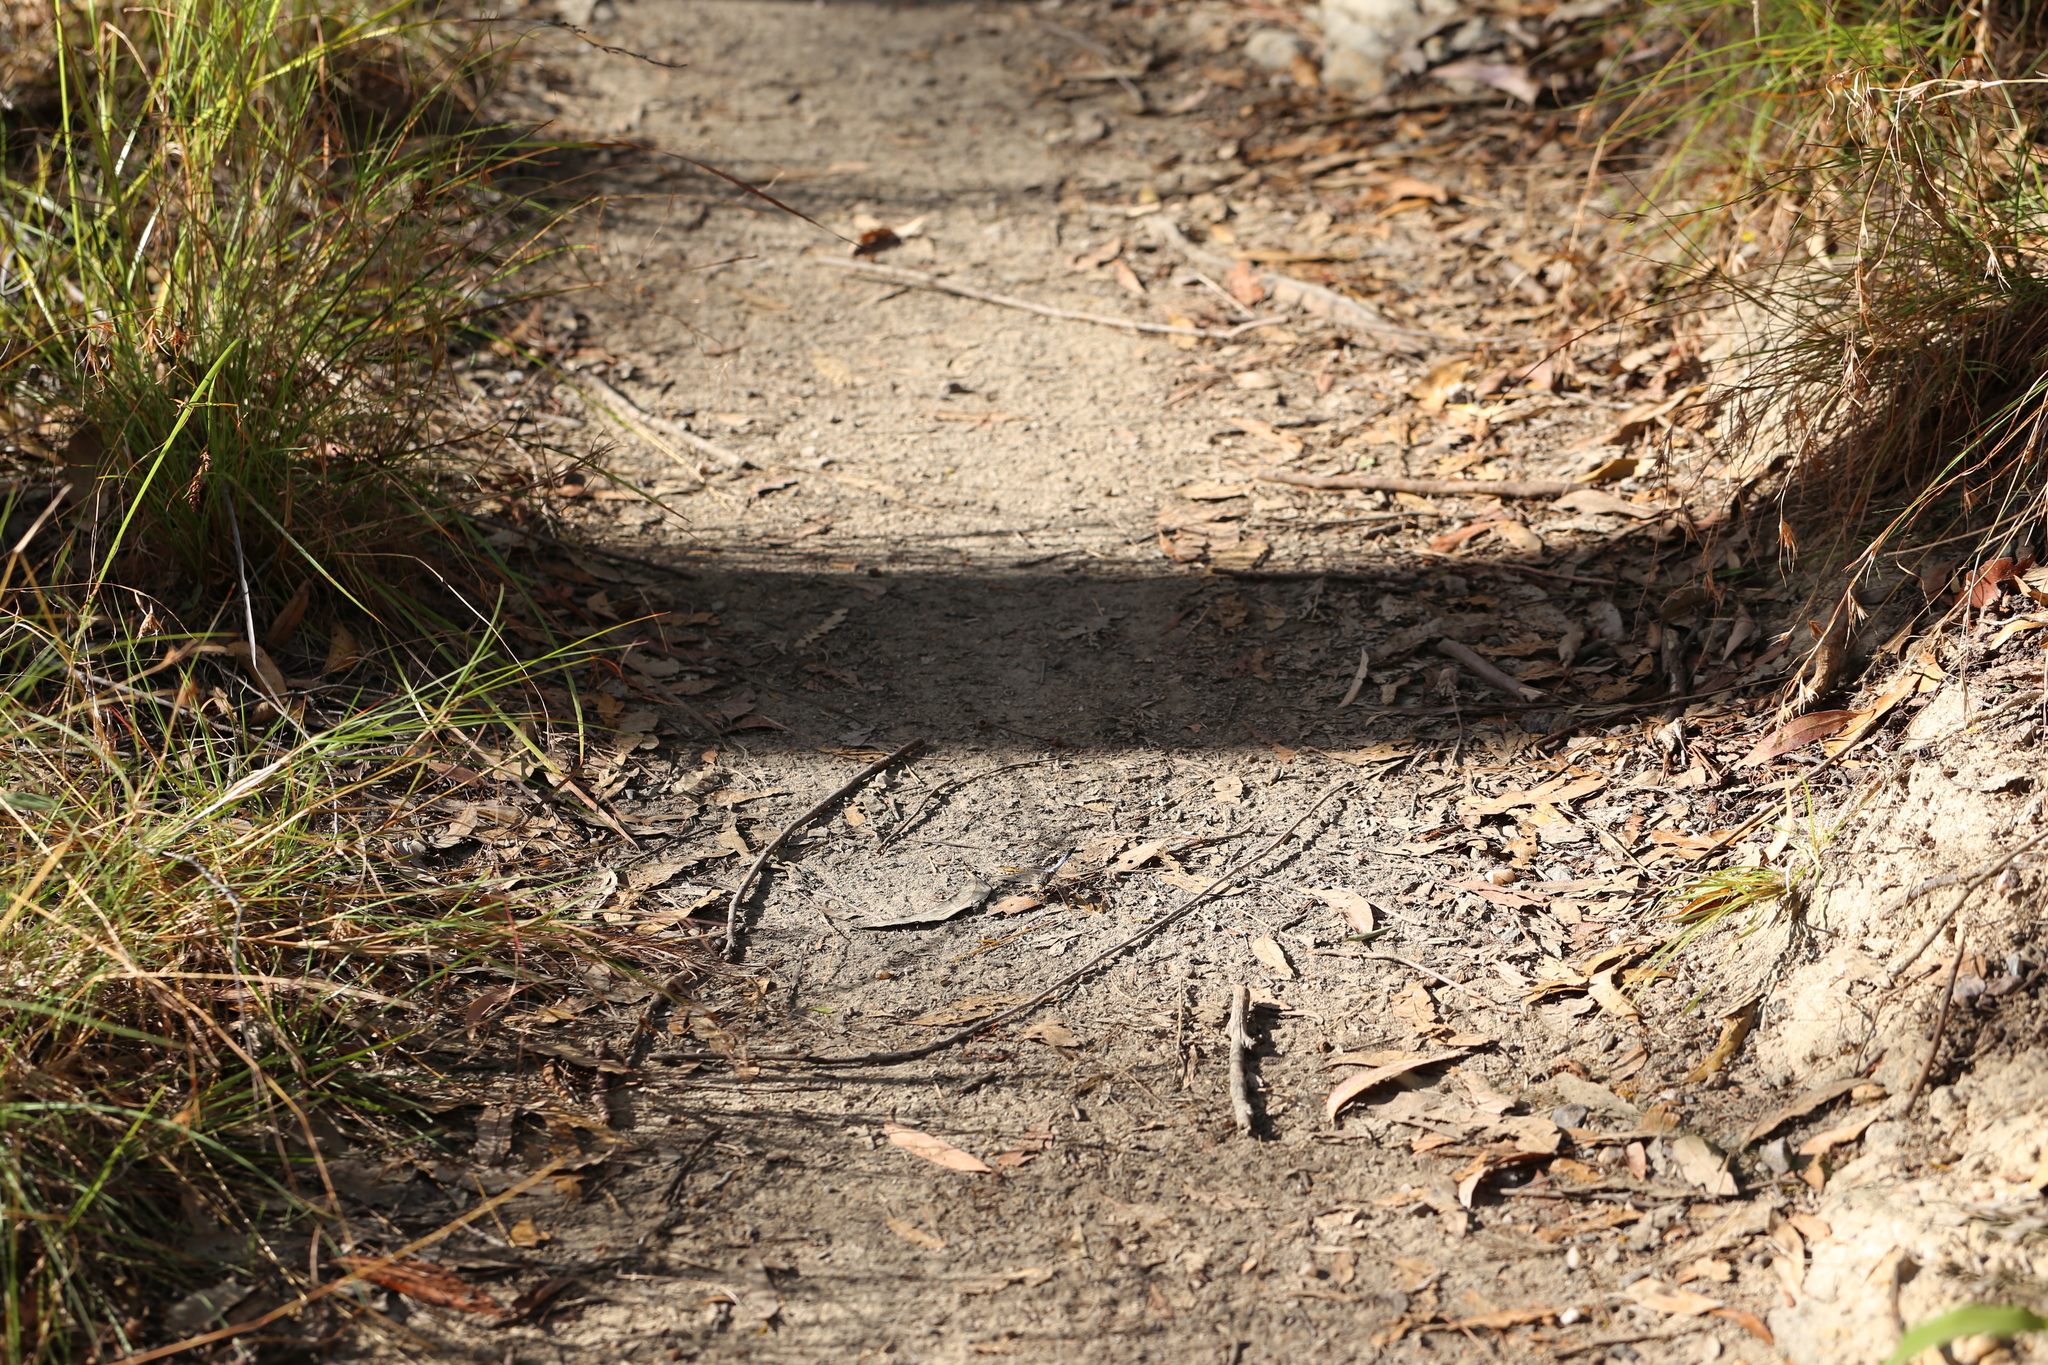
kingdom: Animalia
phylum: Arthropoda
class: Insecta
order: Odonata
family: Libellulidae
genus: Orthetrum
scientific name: Orthetrum caledonicum
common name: Blue skimmer
